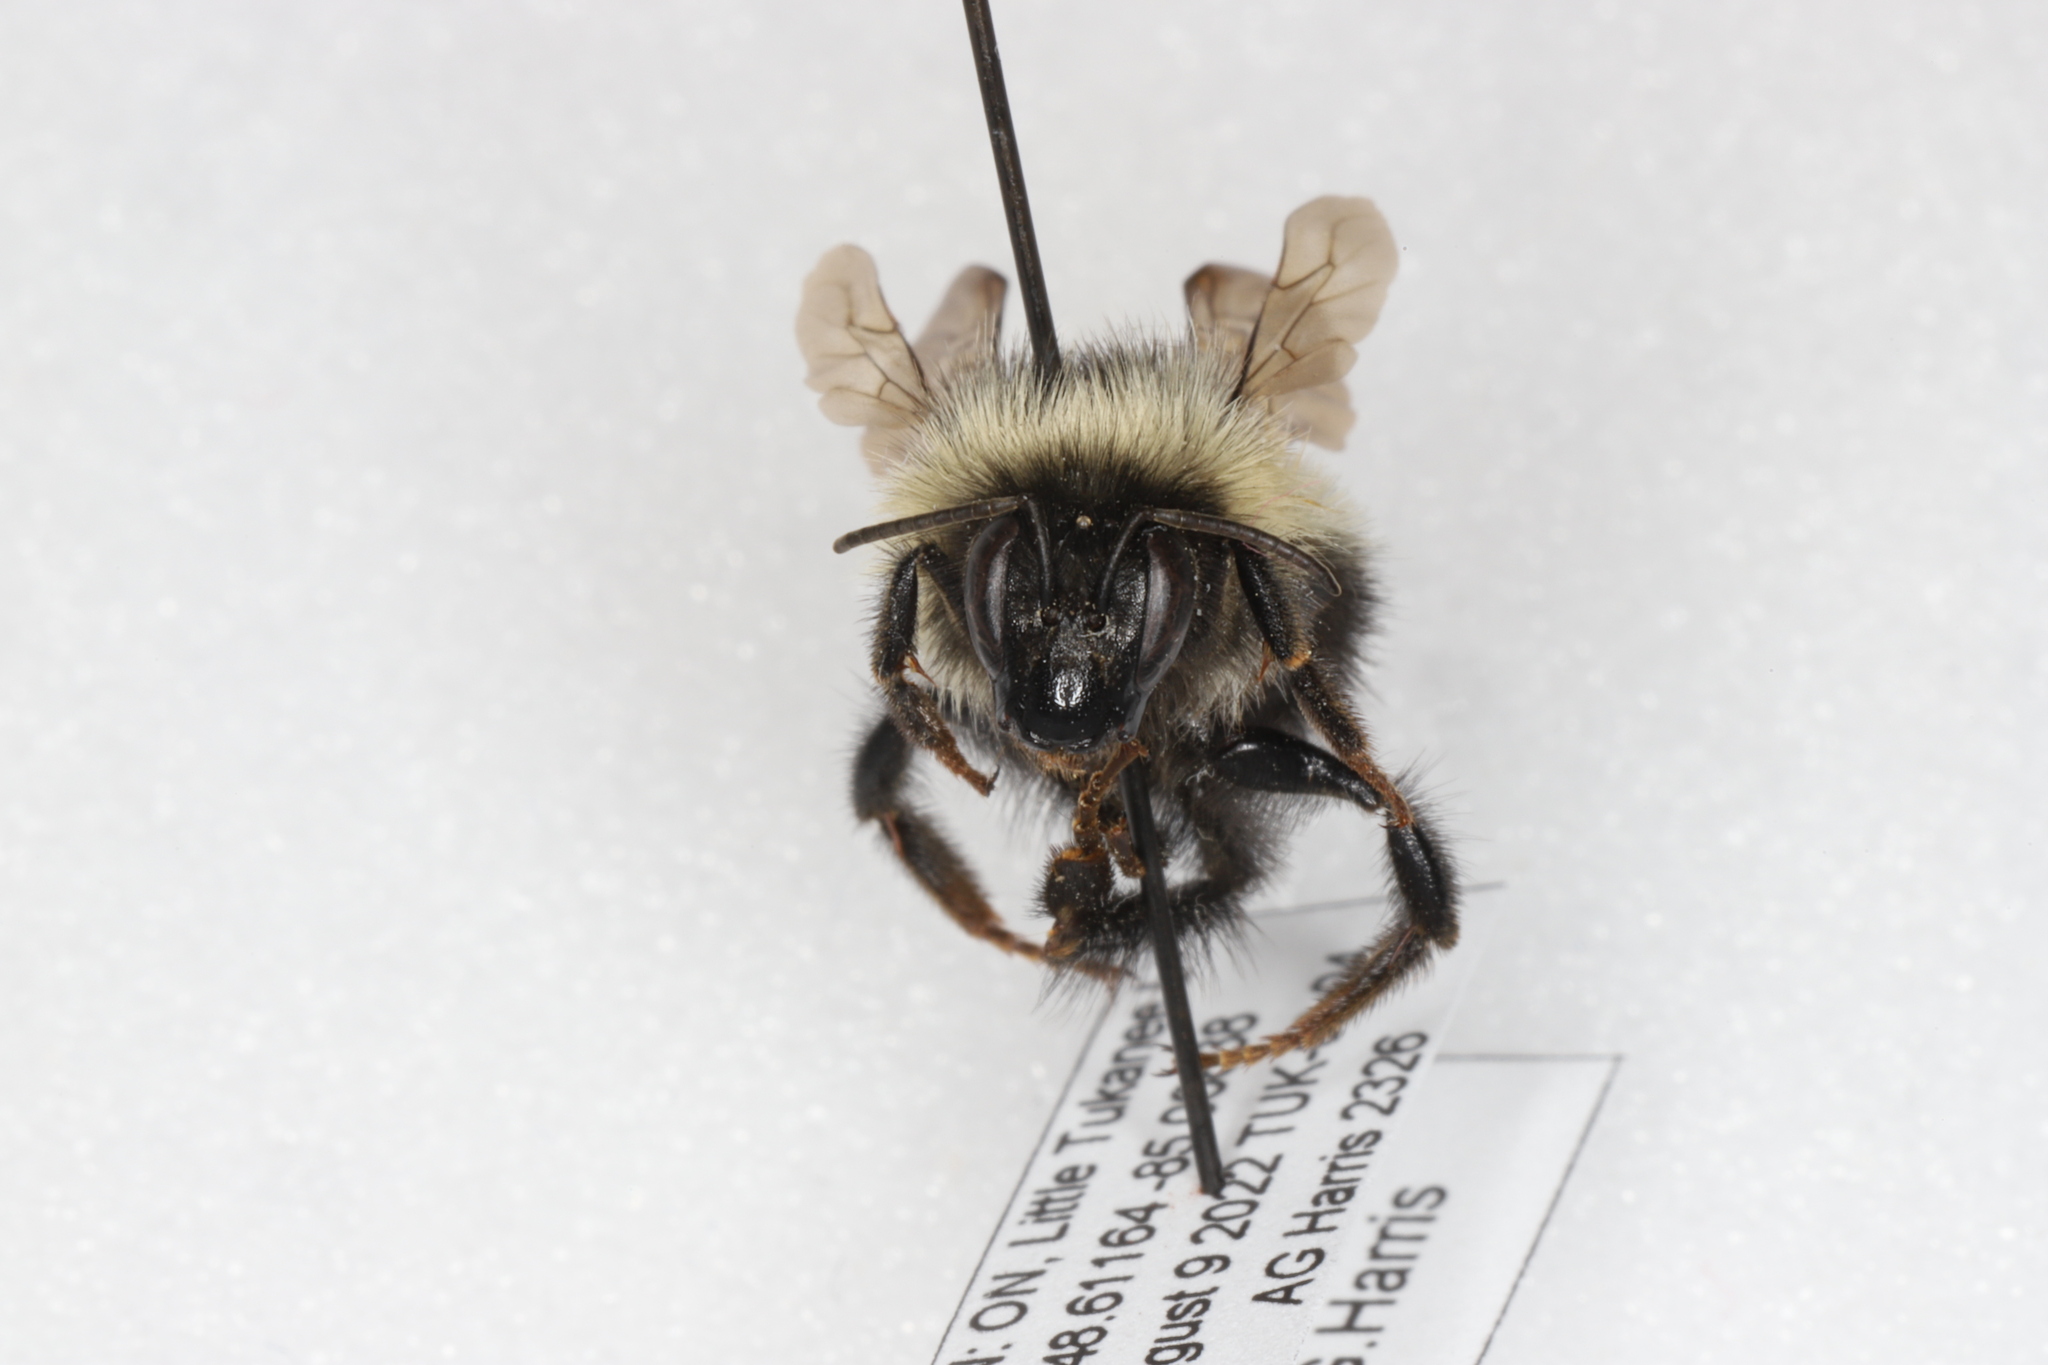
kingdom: Animalia
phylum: Arthropoda
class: Insecta
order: Hymenoptera
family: Apidae
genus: Bombus
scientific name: Bombus vagans
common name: Half-black bumble bee
